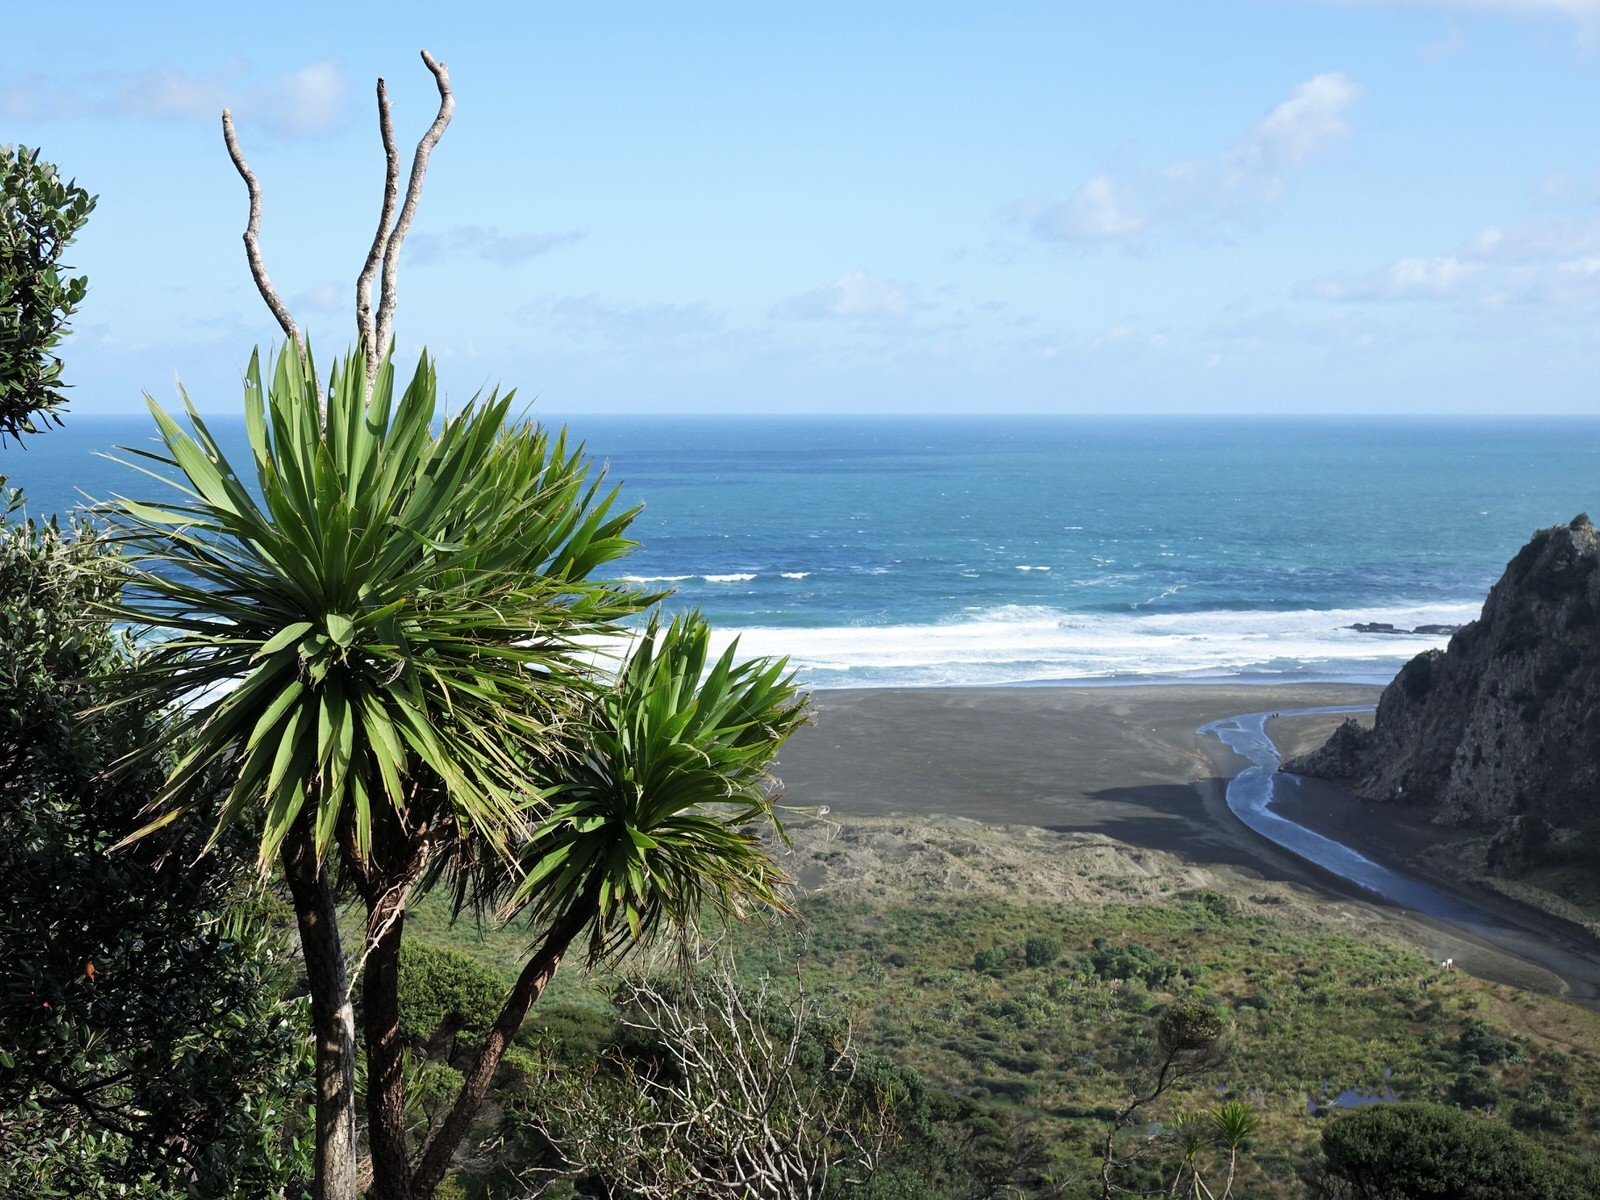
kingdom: Plantae
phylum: Tracheophyta
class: Liliopsida
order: Asparagales
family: Asparagaceae
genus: Cordyline
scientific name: Cordyline australis
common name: Cabbage-palm
